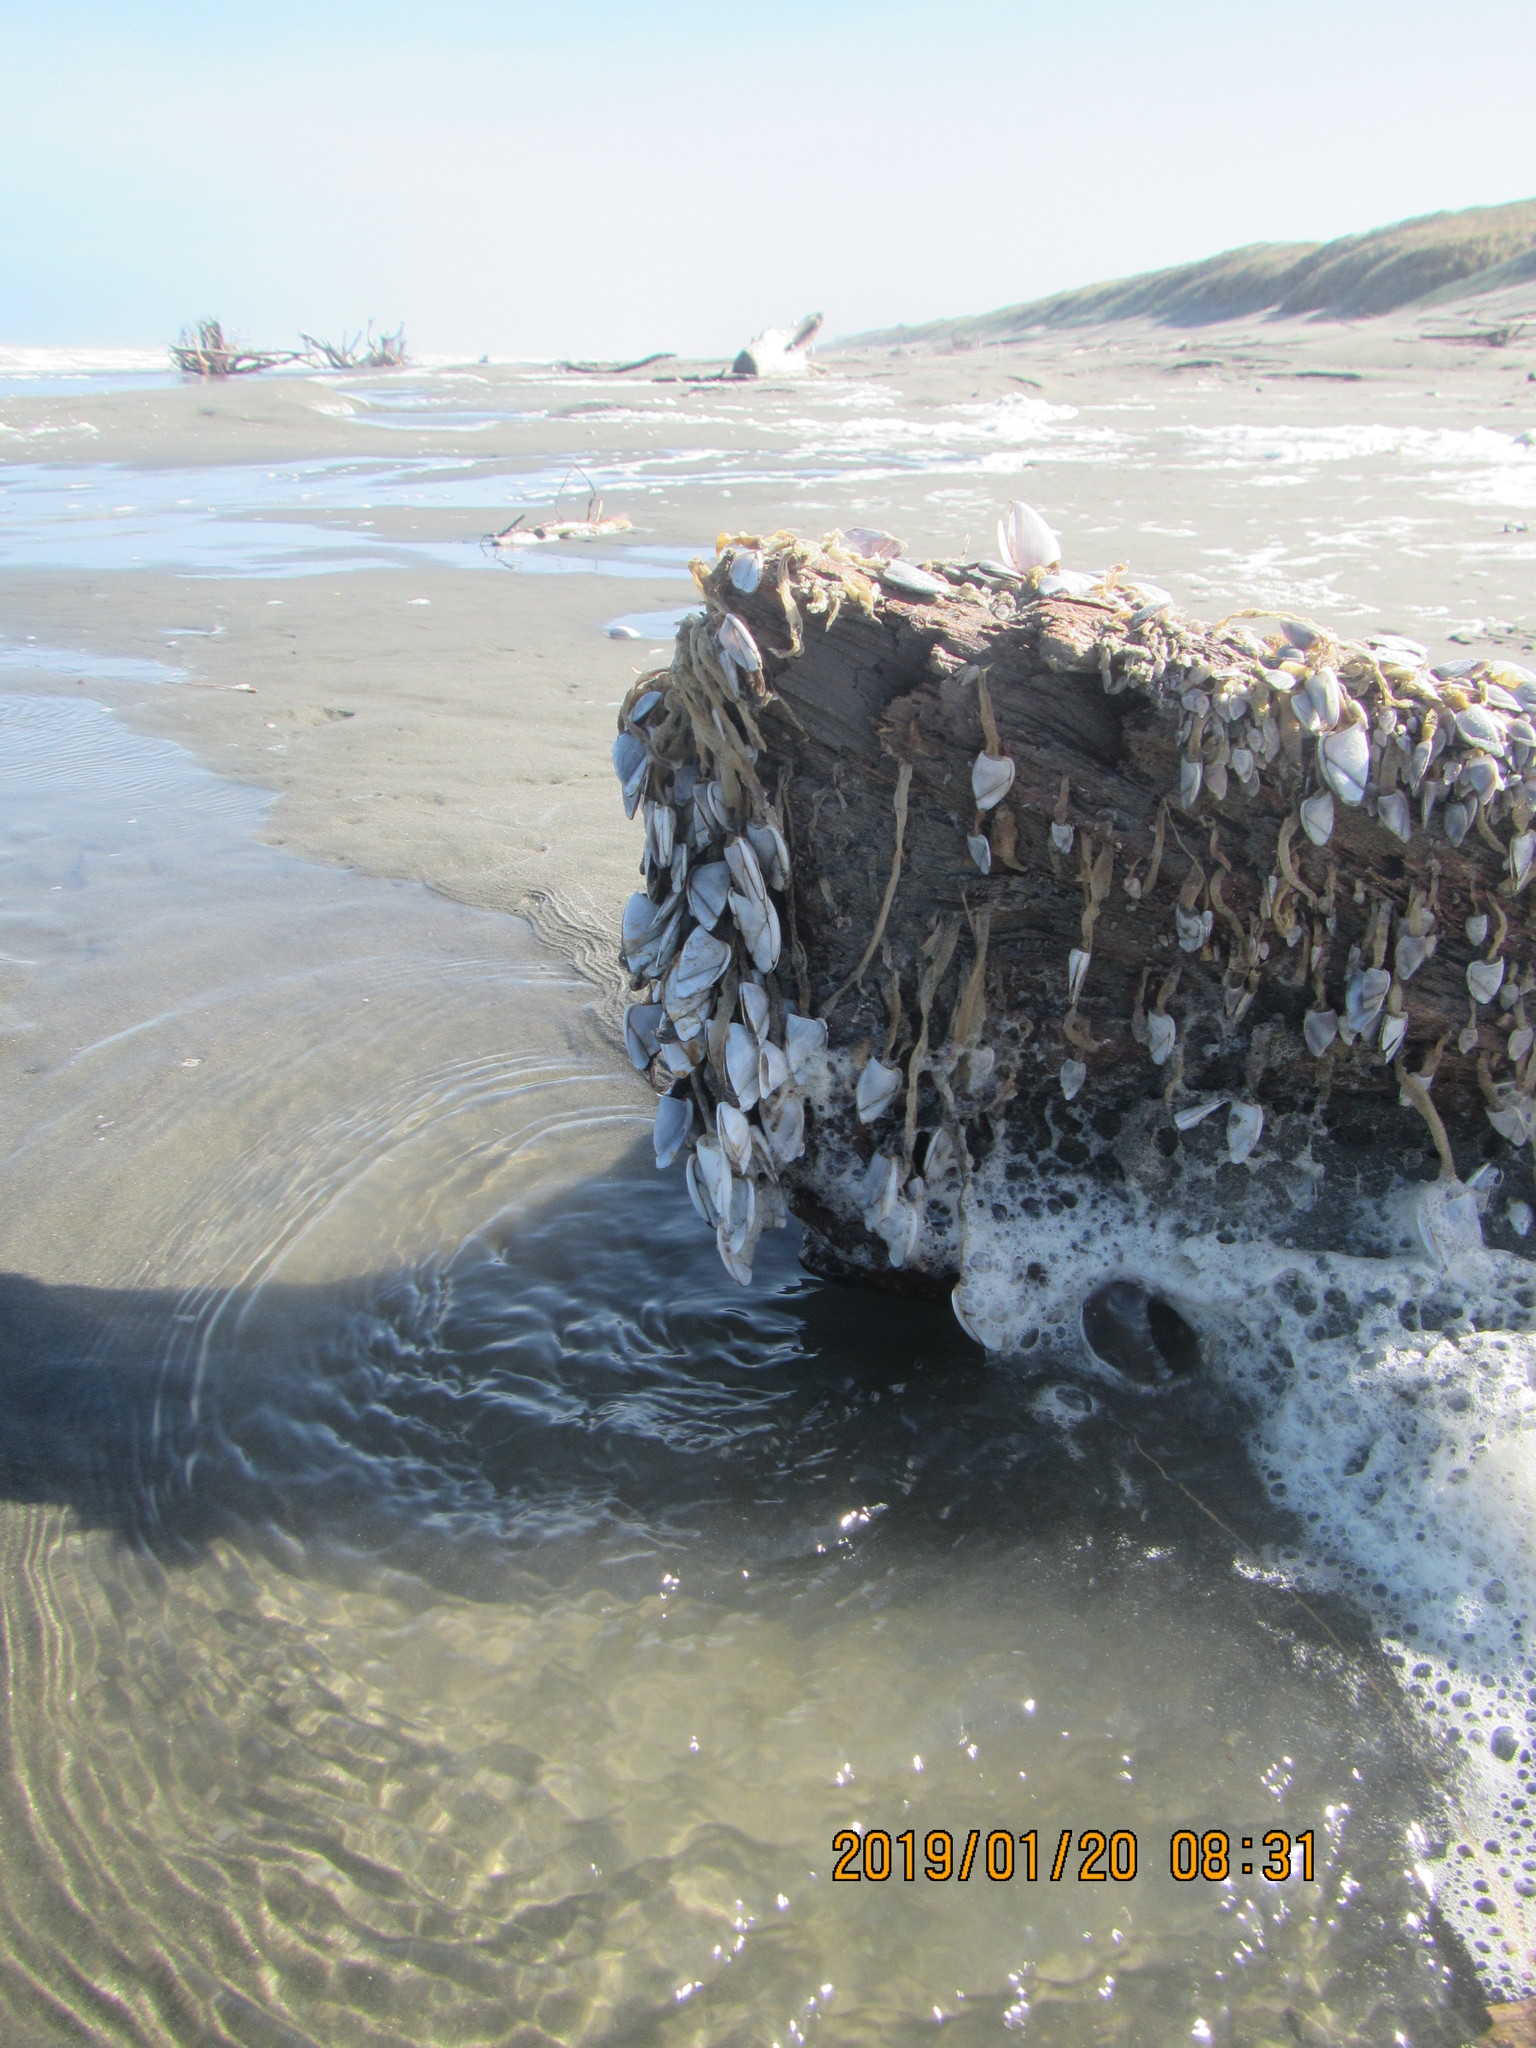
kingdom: Animalia
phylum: Arthropoda
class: Maxillopoda
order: Pedunculata
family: Lepadidae
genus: Lepas
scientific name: Lepas anatifera
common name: Common goose barnacle
